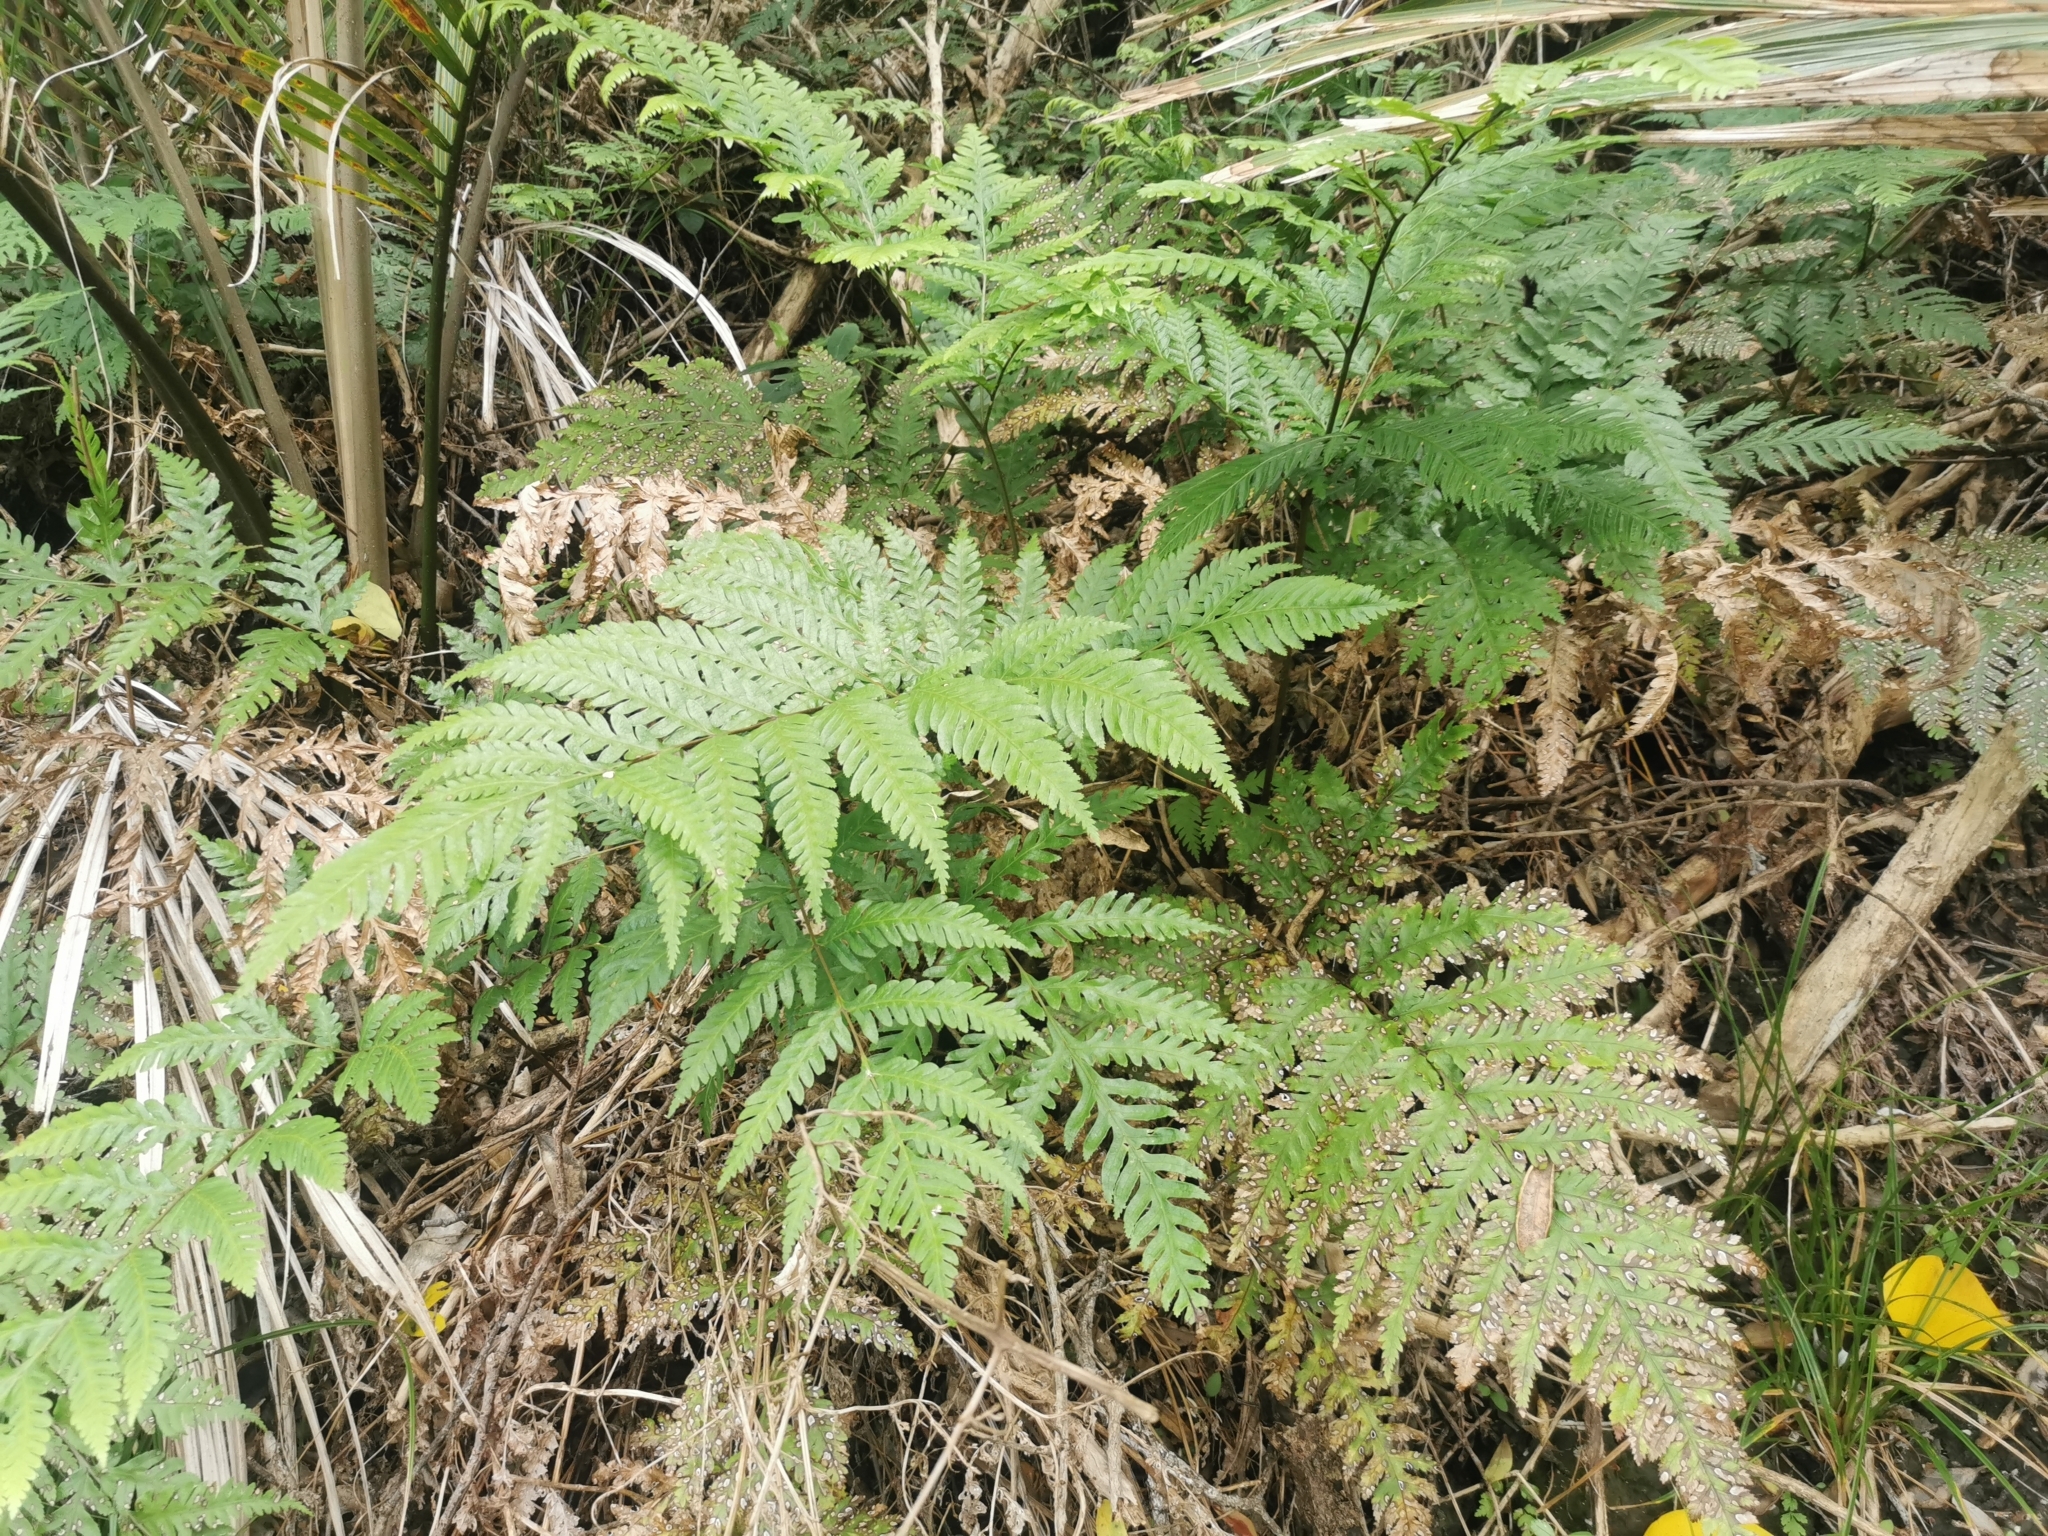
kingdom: Plantae
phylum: Tracheophyta
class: Polypodiopsida
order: Polypodiales
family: Pteridaceae
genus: Pteris
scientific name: Pteris carsei
